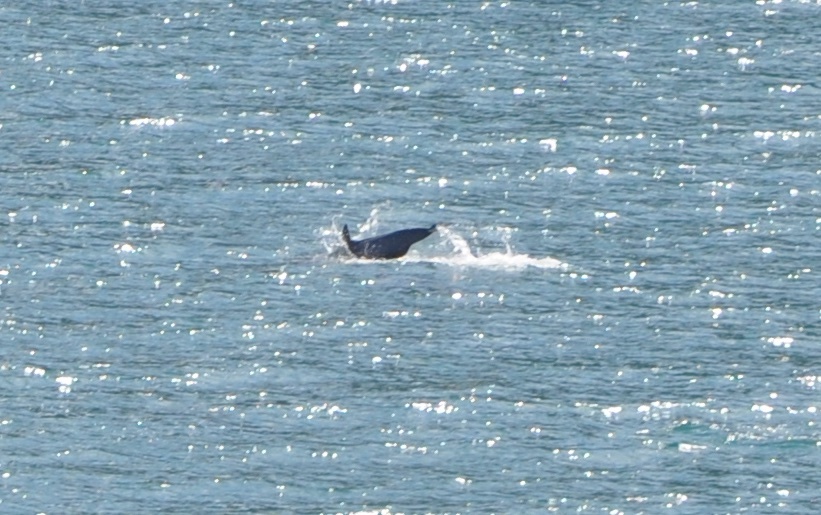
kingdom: Animalia
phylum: Chordata
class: Mammalia
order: Cetacea
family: Delphinidae
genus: Delphinus
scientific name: Delphinus delphis
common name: Common dolphin
